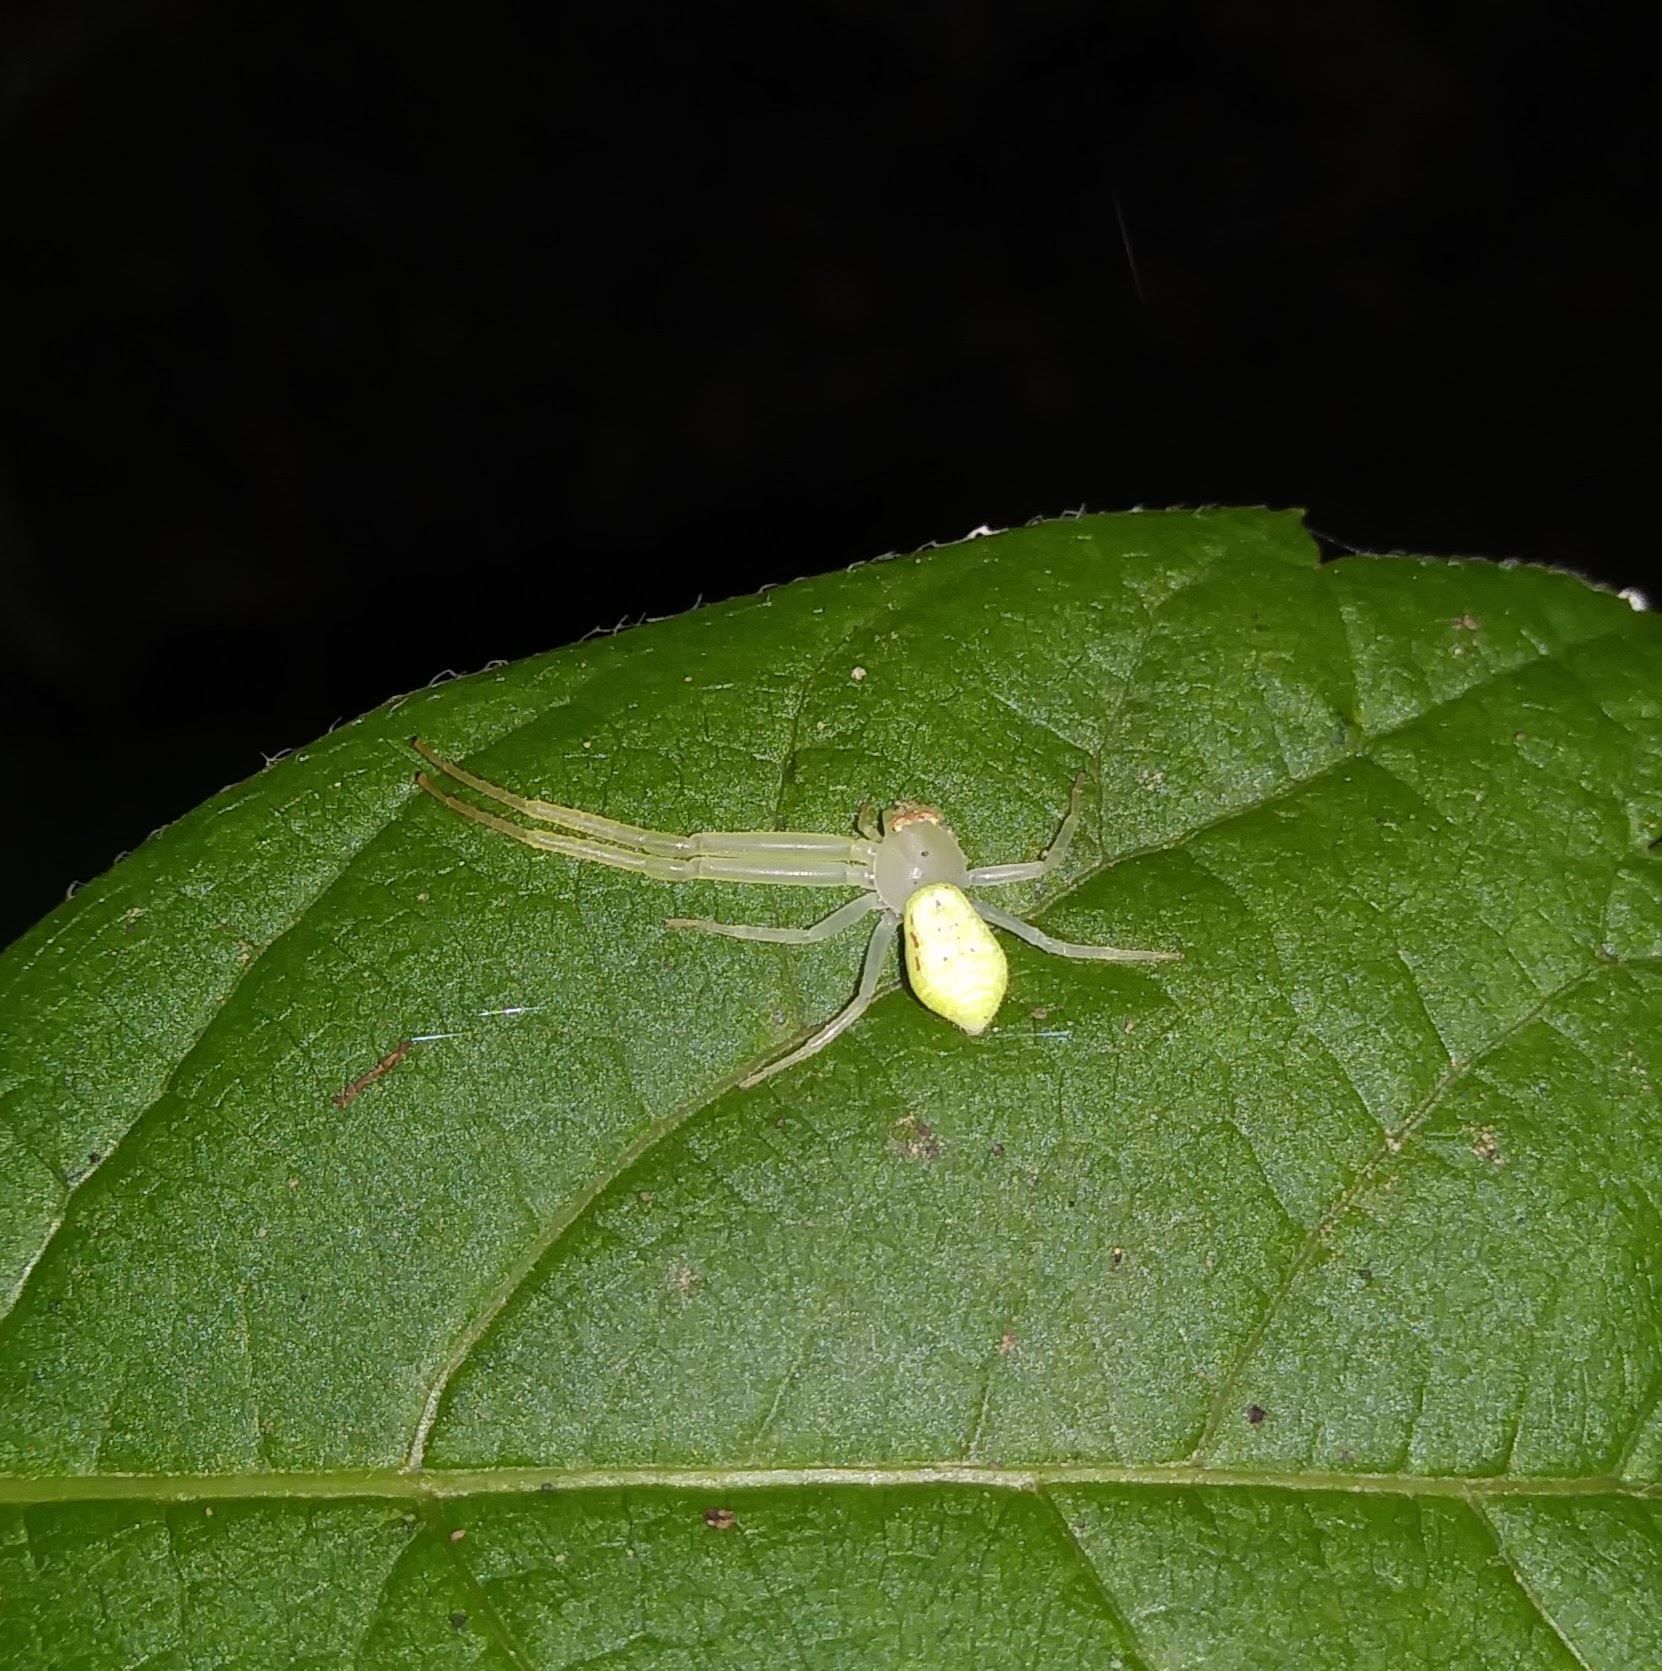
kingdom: Animalia
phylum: Arthropoda
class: Arachnida
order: Araneae
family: Thomisidae
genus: Misumessus
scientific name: Misumessus oblongus
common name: American green crab spider
